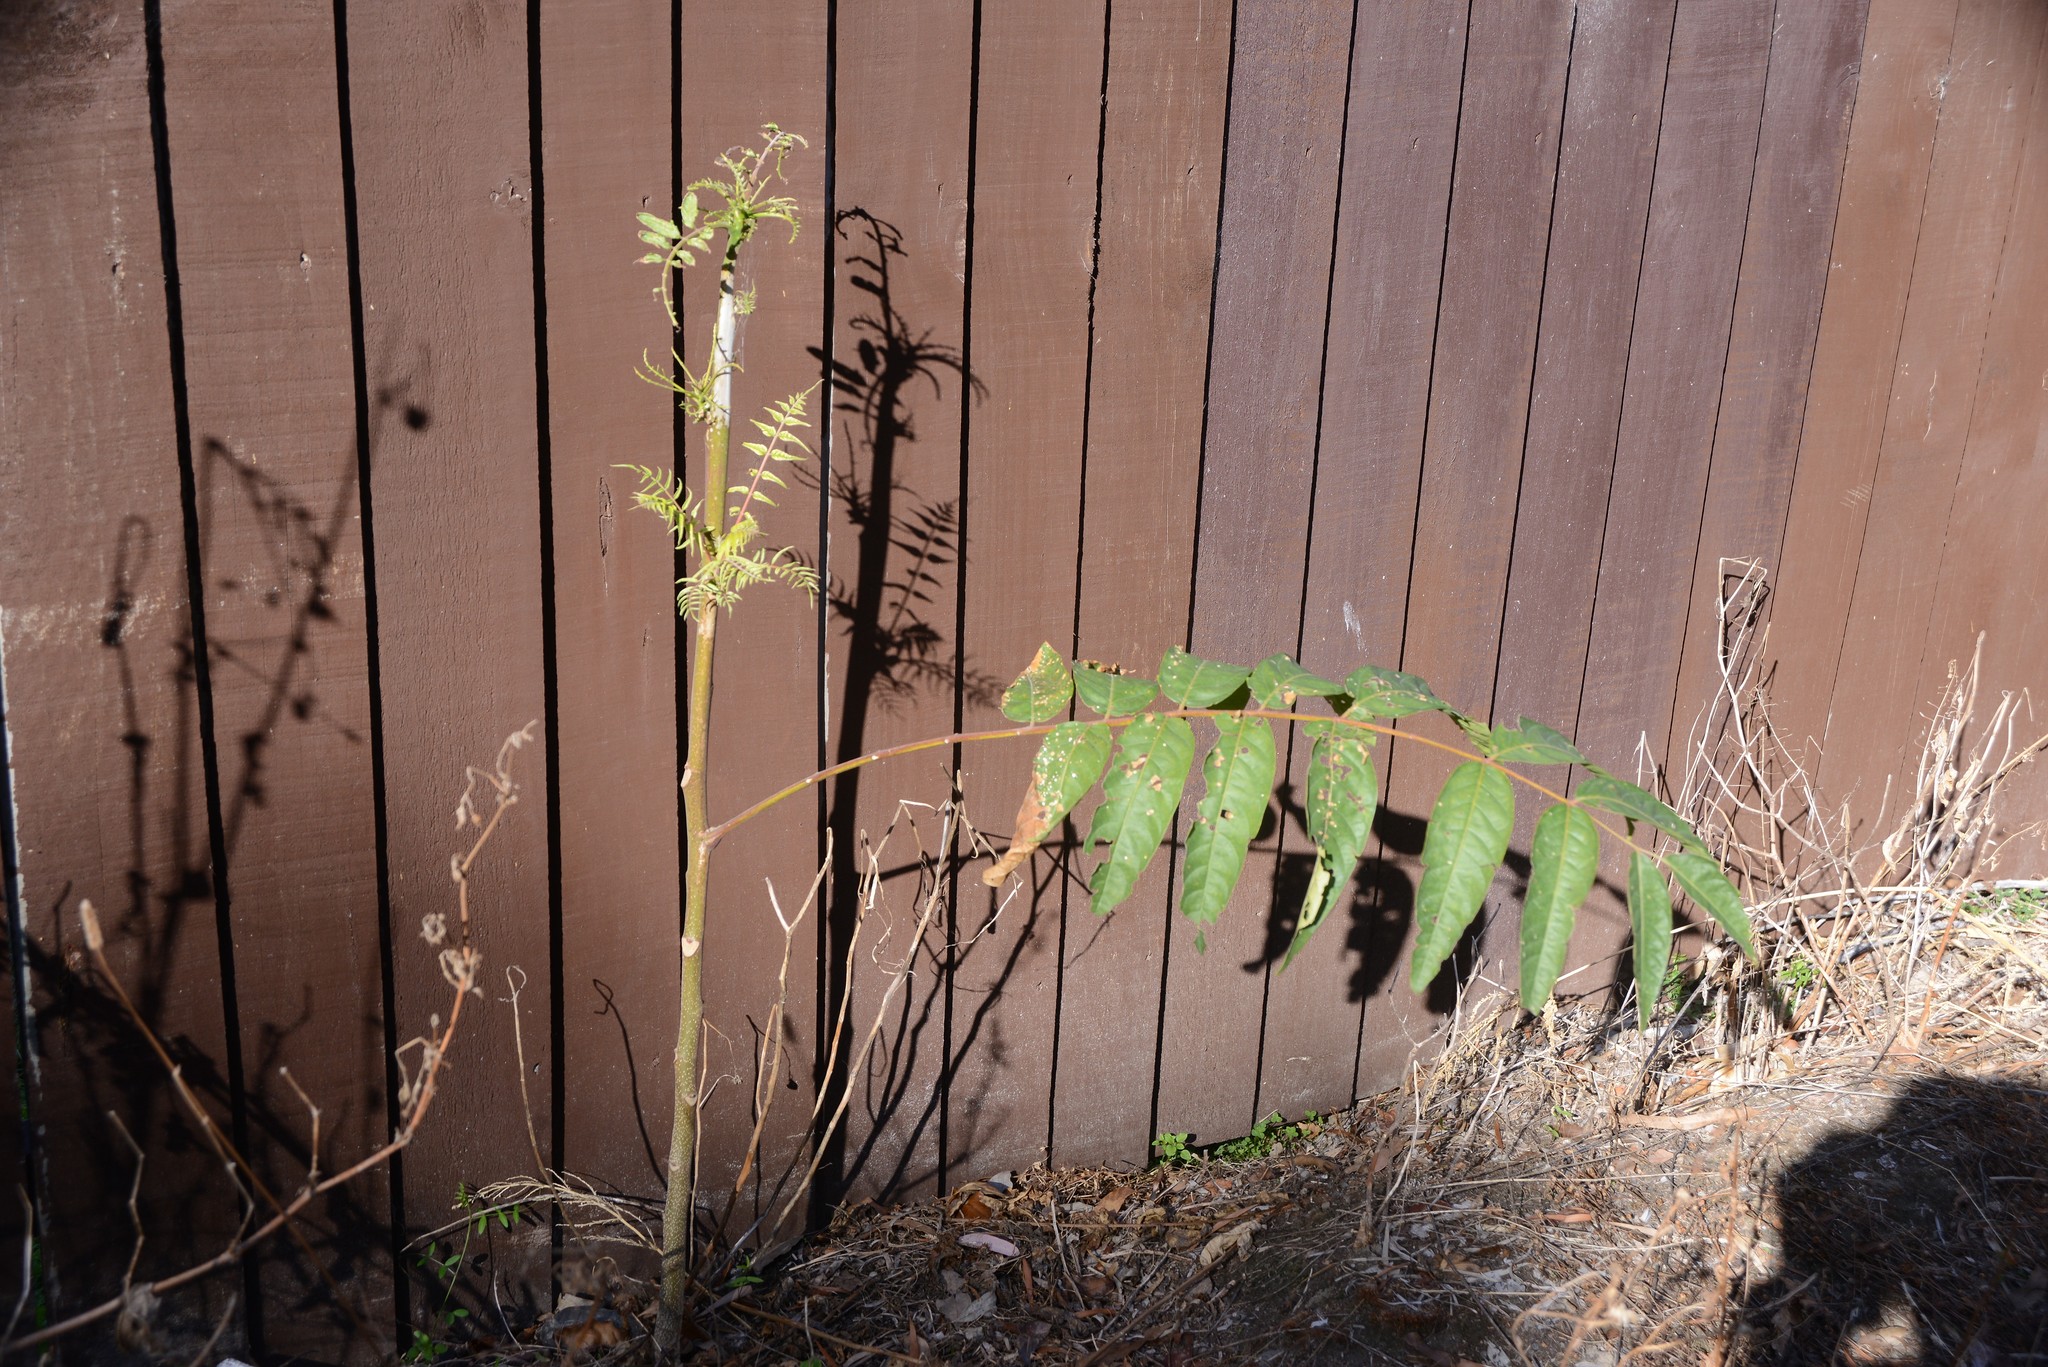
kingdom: Plantae
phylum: Tracheophyta
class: Magnoliopsida
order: Sapindales
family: Simaroubaceae
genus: Ailanthus
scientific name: Ailanthus altissima
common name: Tree-of-heaven
